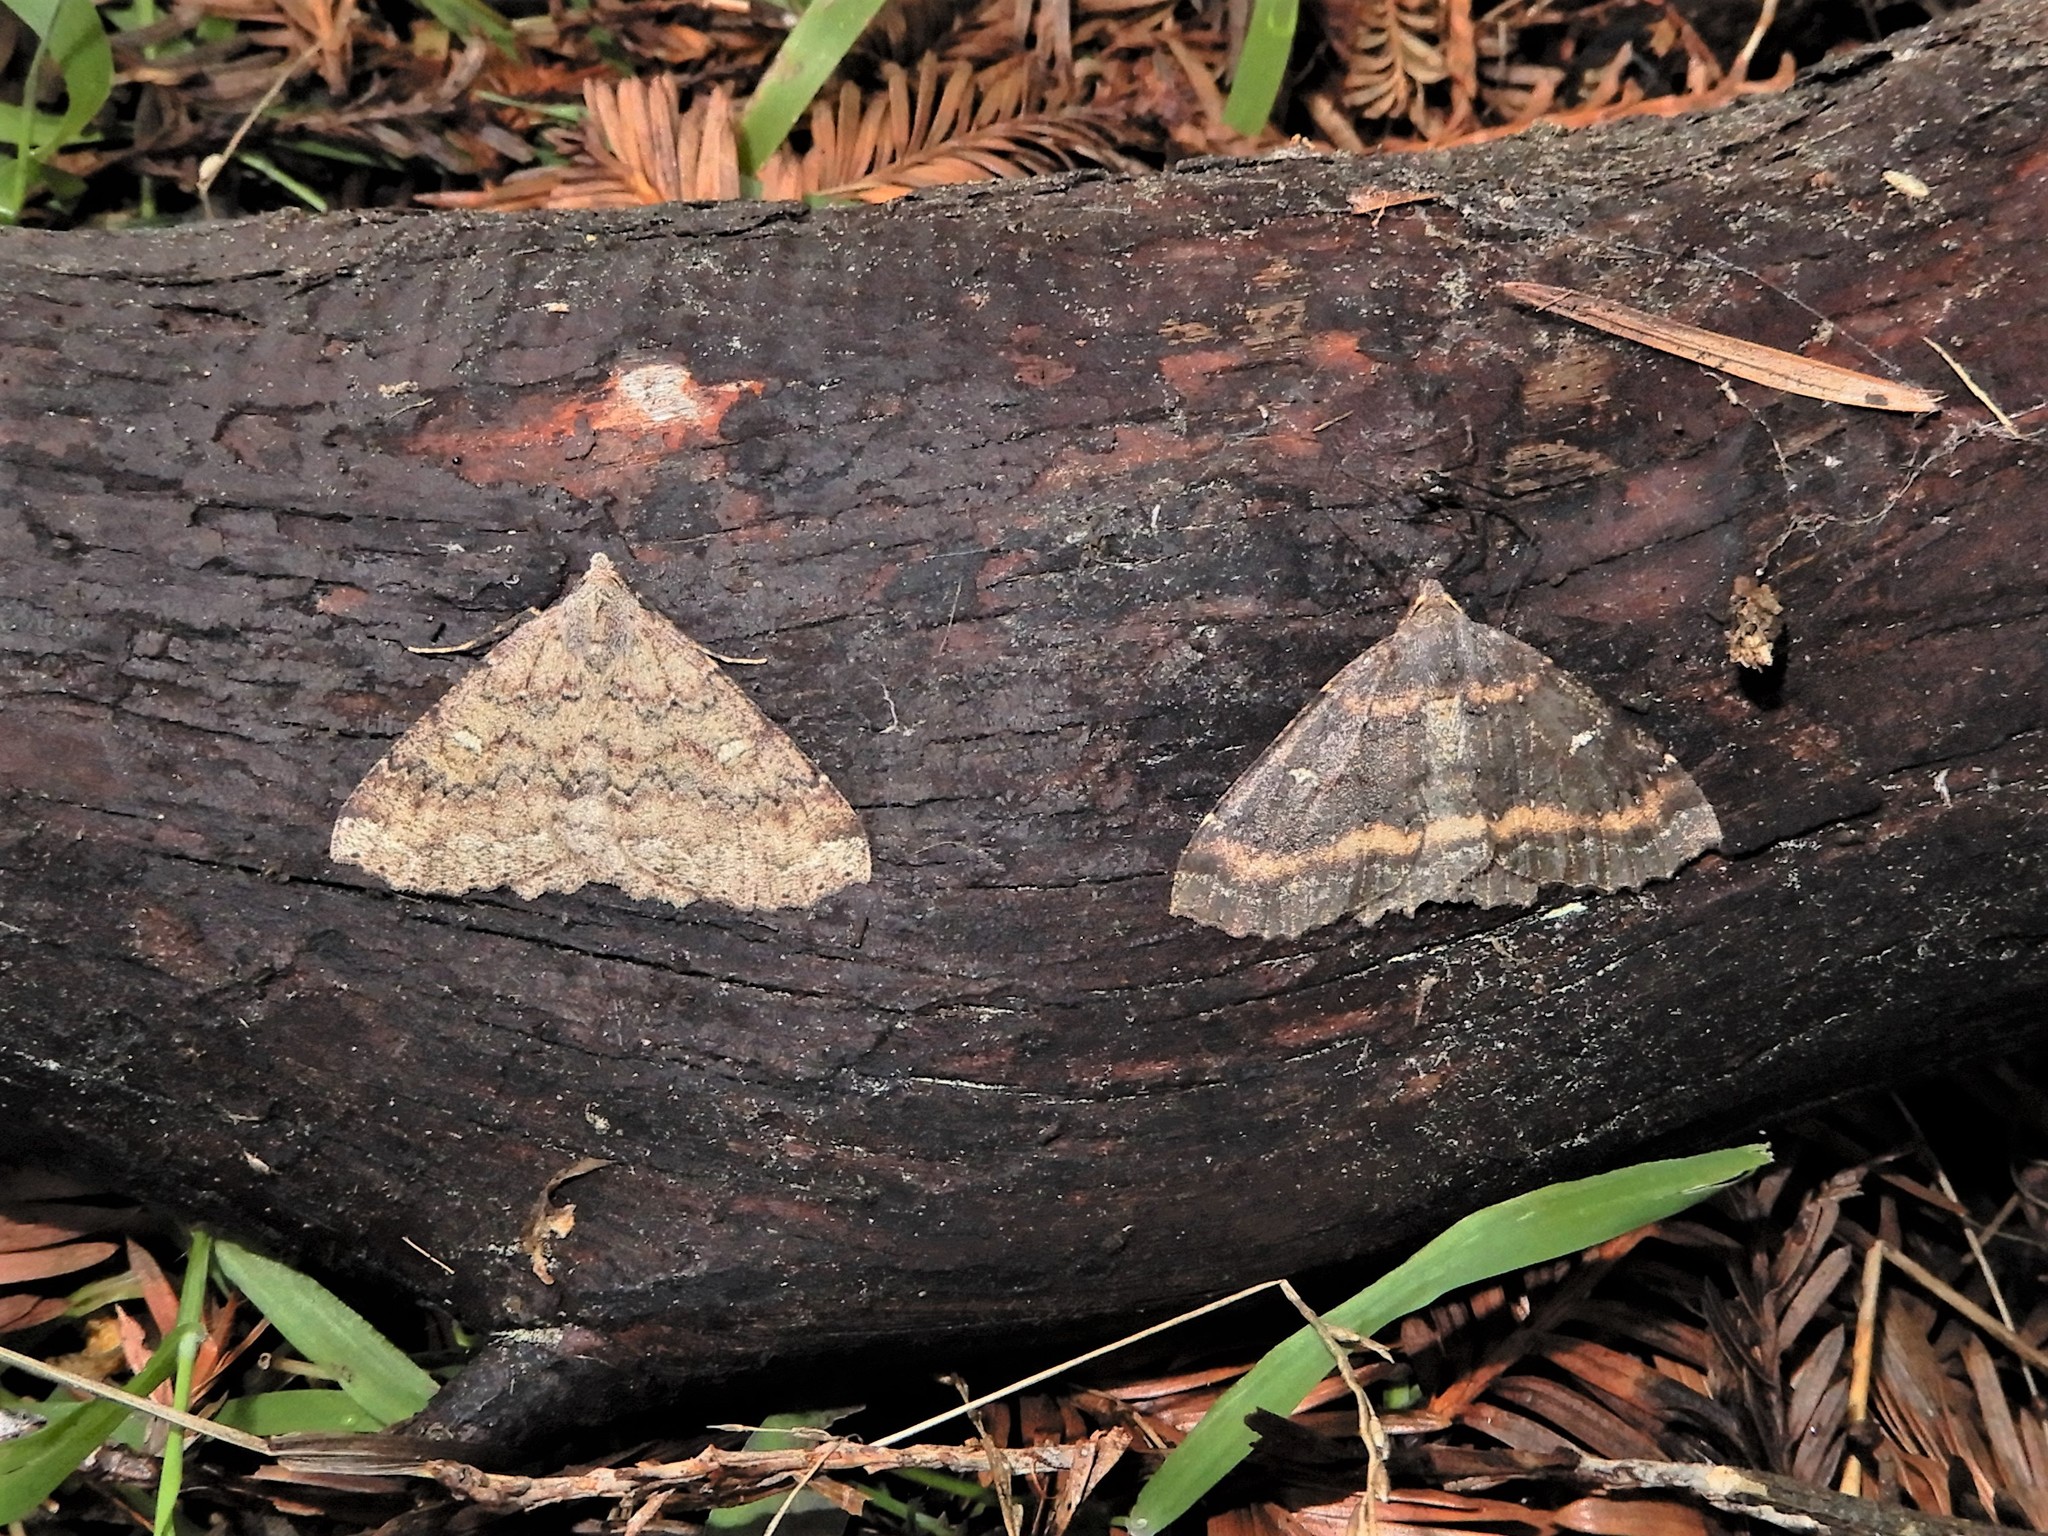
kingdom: Animalia
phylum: Arthropoda
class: Insecta
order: Lepidoptera
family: Geometridae
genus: Cleora
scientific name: Cleora scriptaria
